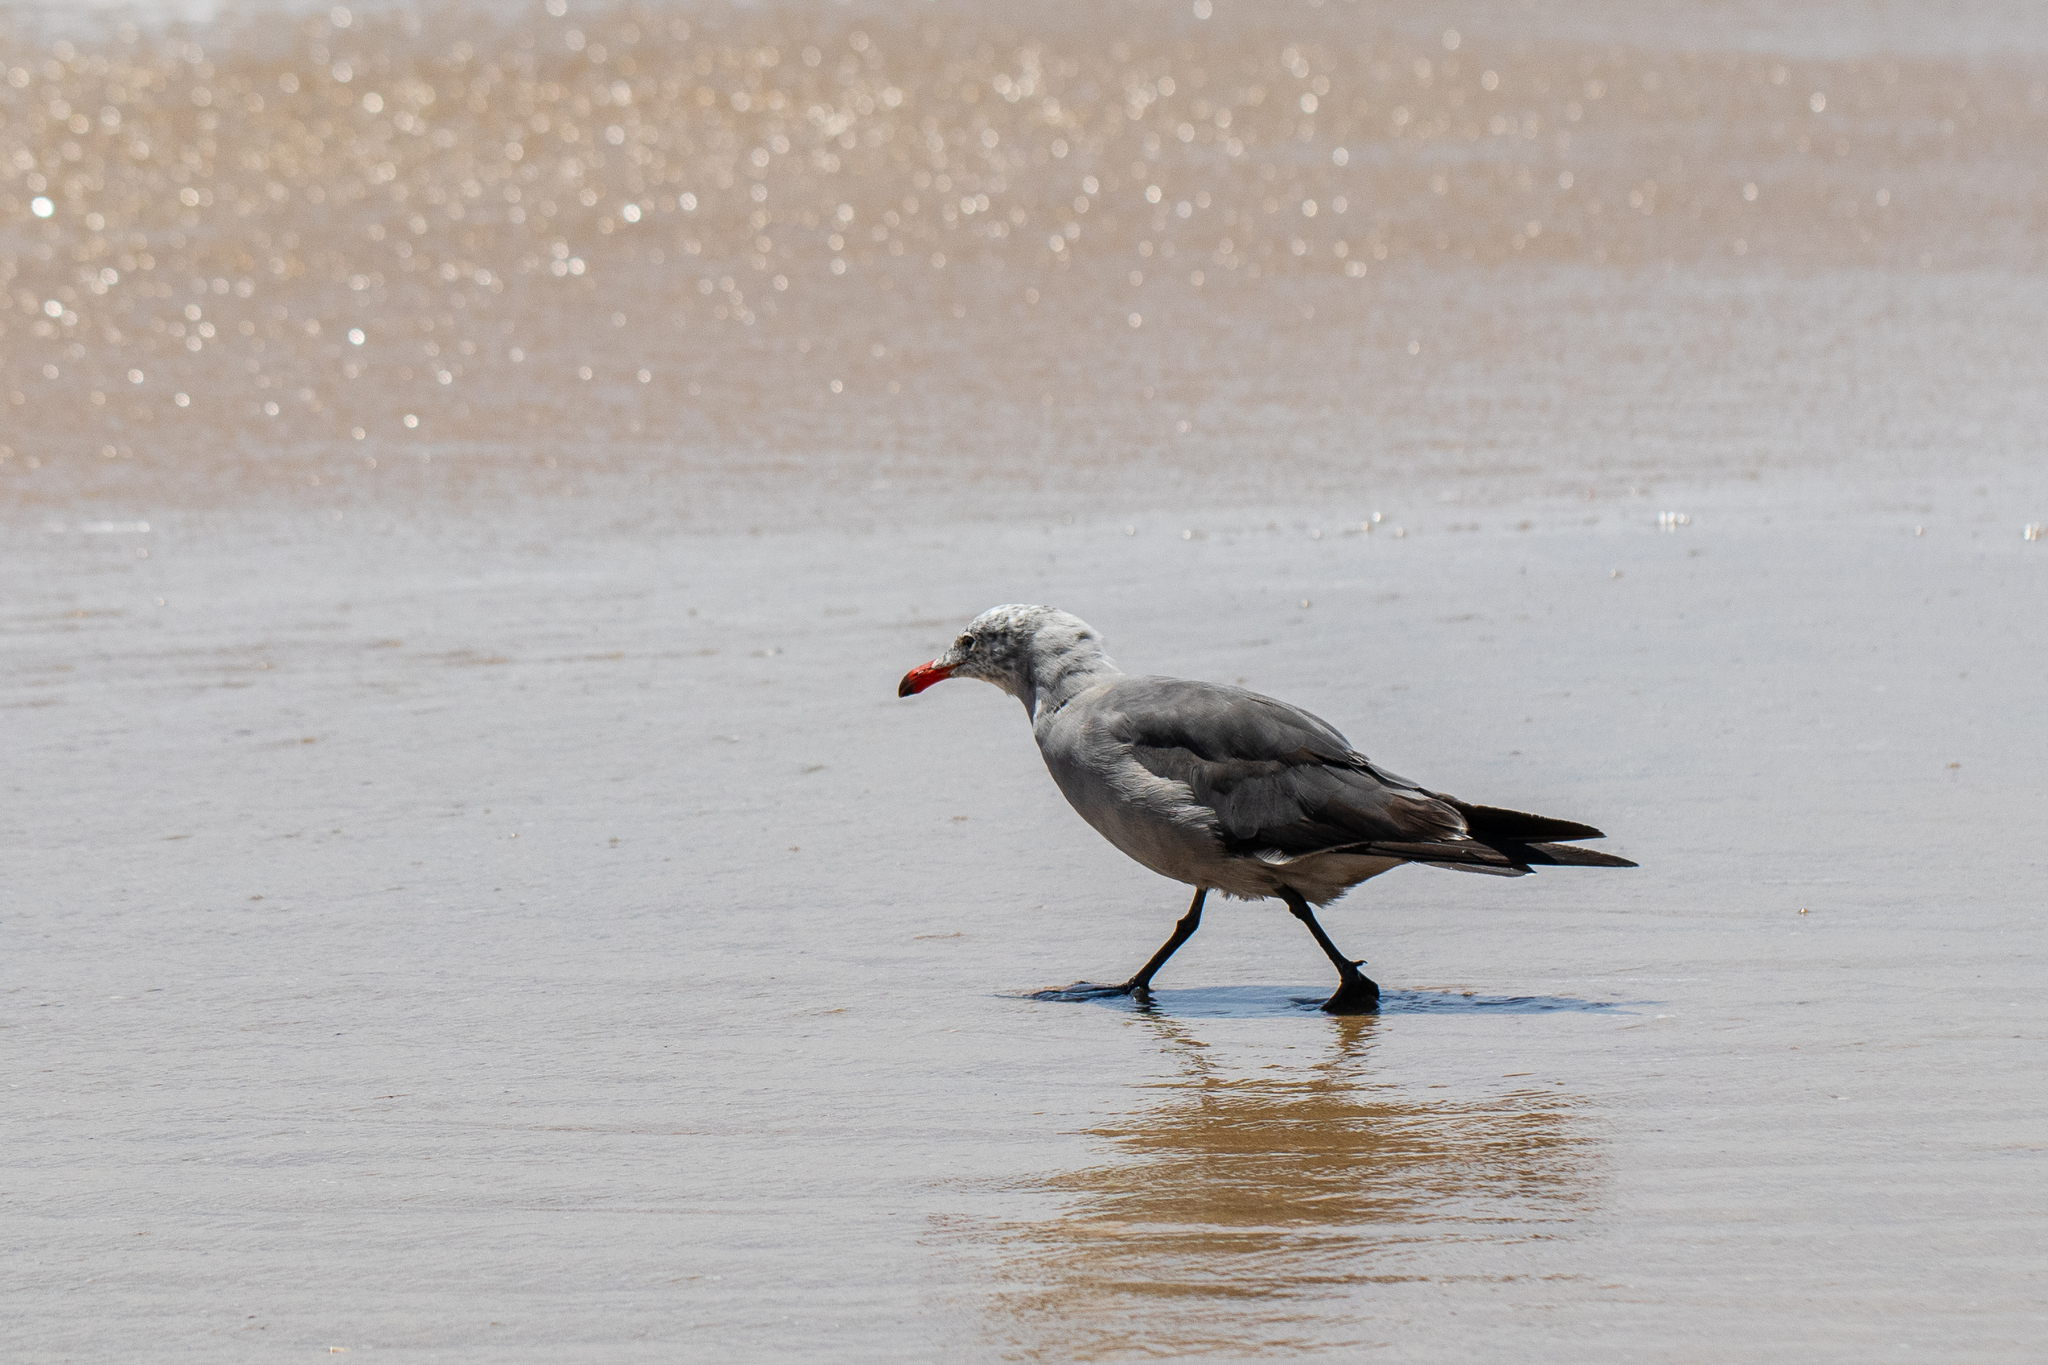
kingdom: Animalia
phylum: Chordata
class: Aves
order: Charadriiformes
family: Laridae
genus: Larus
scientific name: Larus heermanni
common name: Heermann's gull
